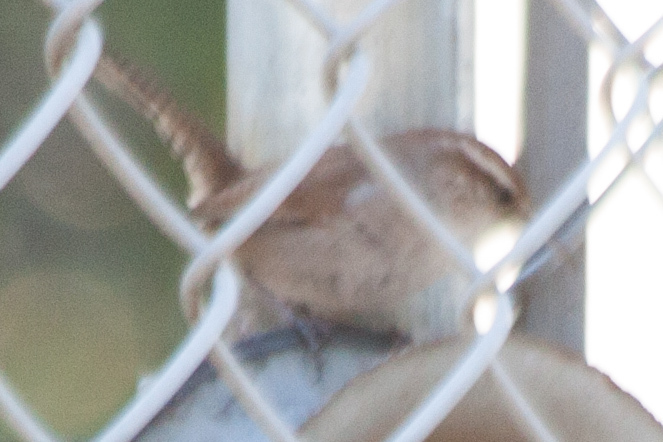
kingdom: Animalia
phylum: Chordata
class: Aves
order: Passeriformes
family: Troglodytidae
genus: Thryomanes
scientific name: Thryomanes bewickii
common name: Bewick's wren
